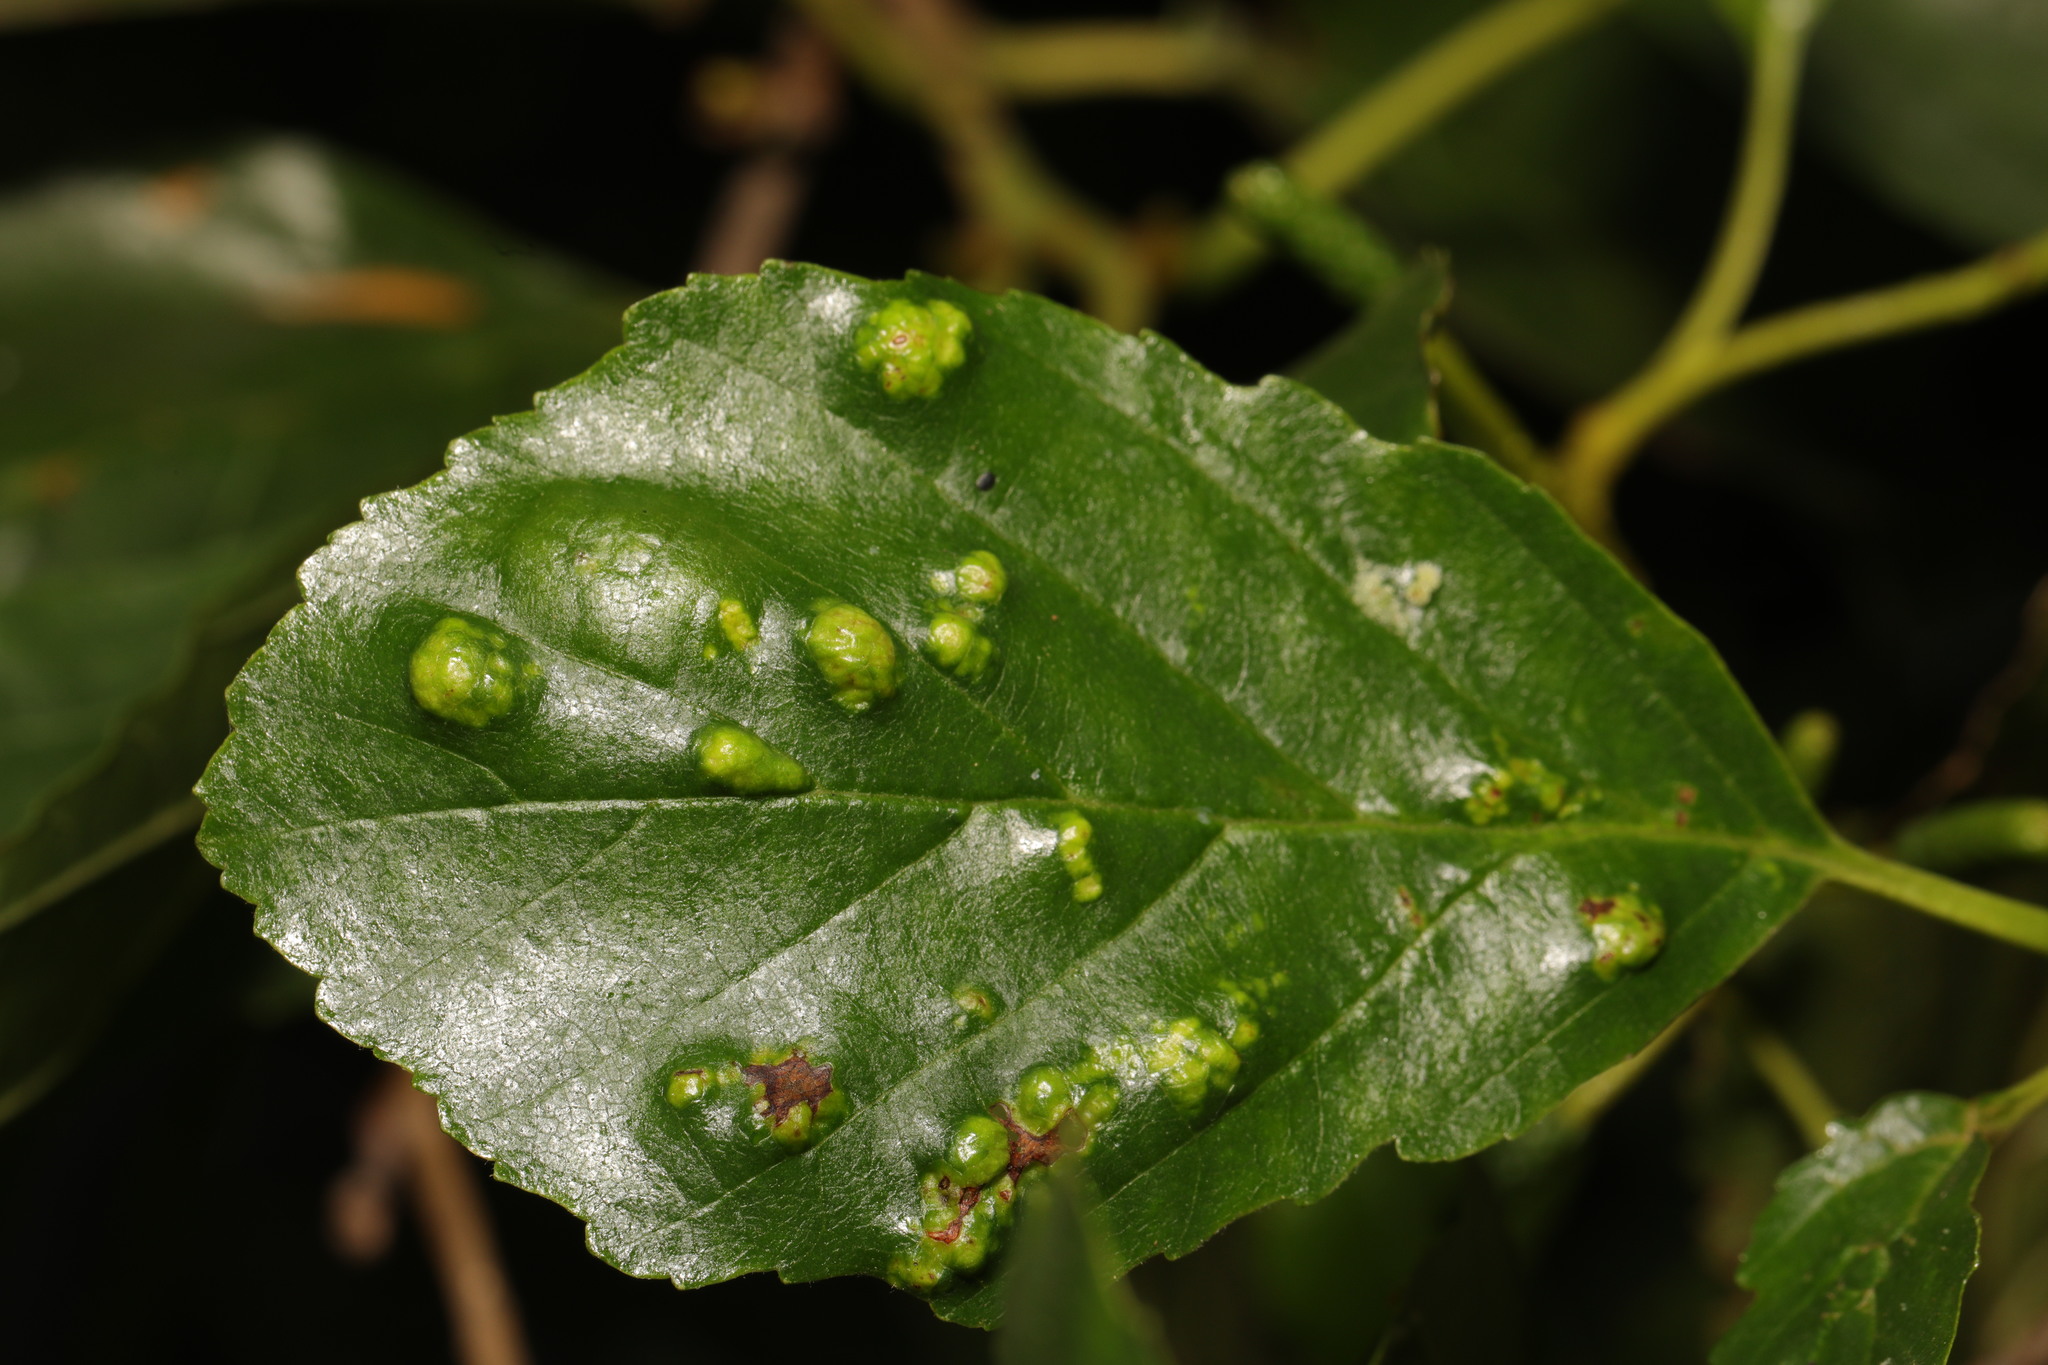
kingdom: Animalia
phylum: Arthropoda
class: Arachnida
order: Trombidiformes
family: Eriophyidae
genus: Acalitus
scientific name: Acalitus brevitarsus
